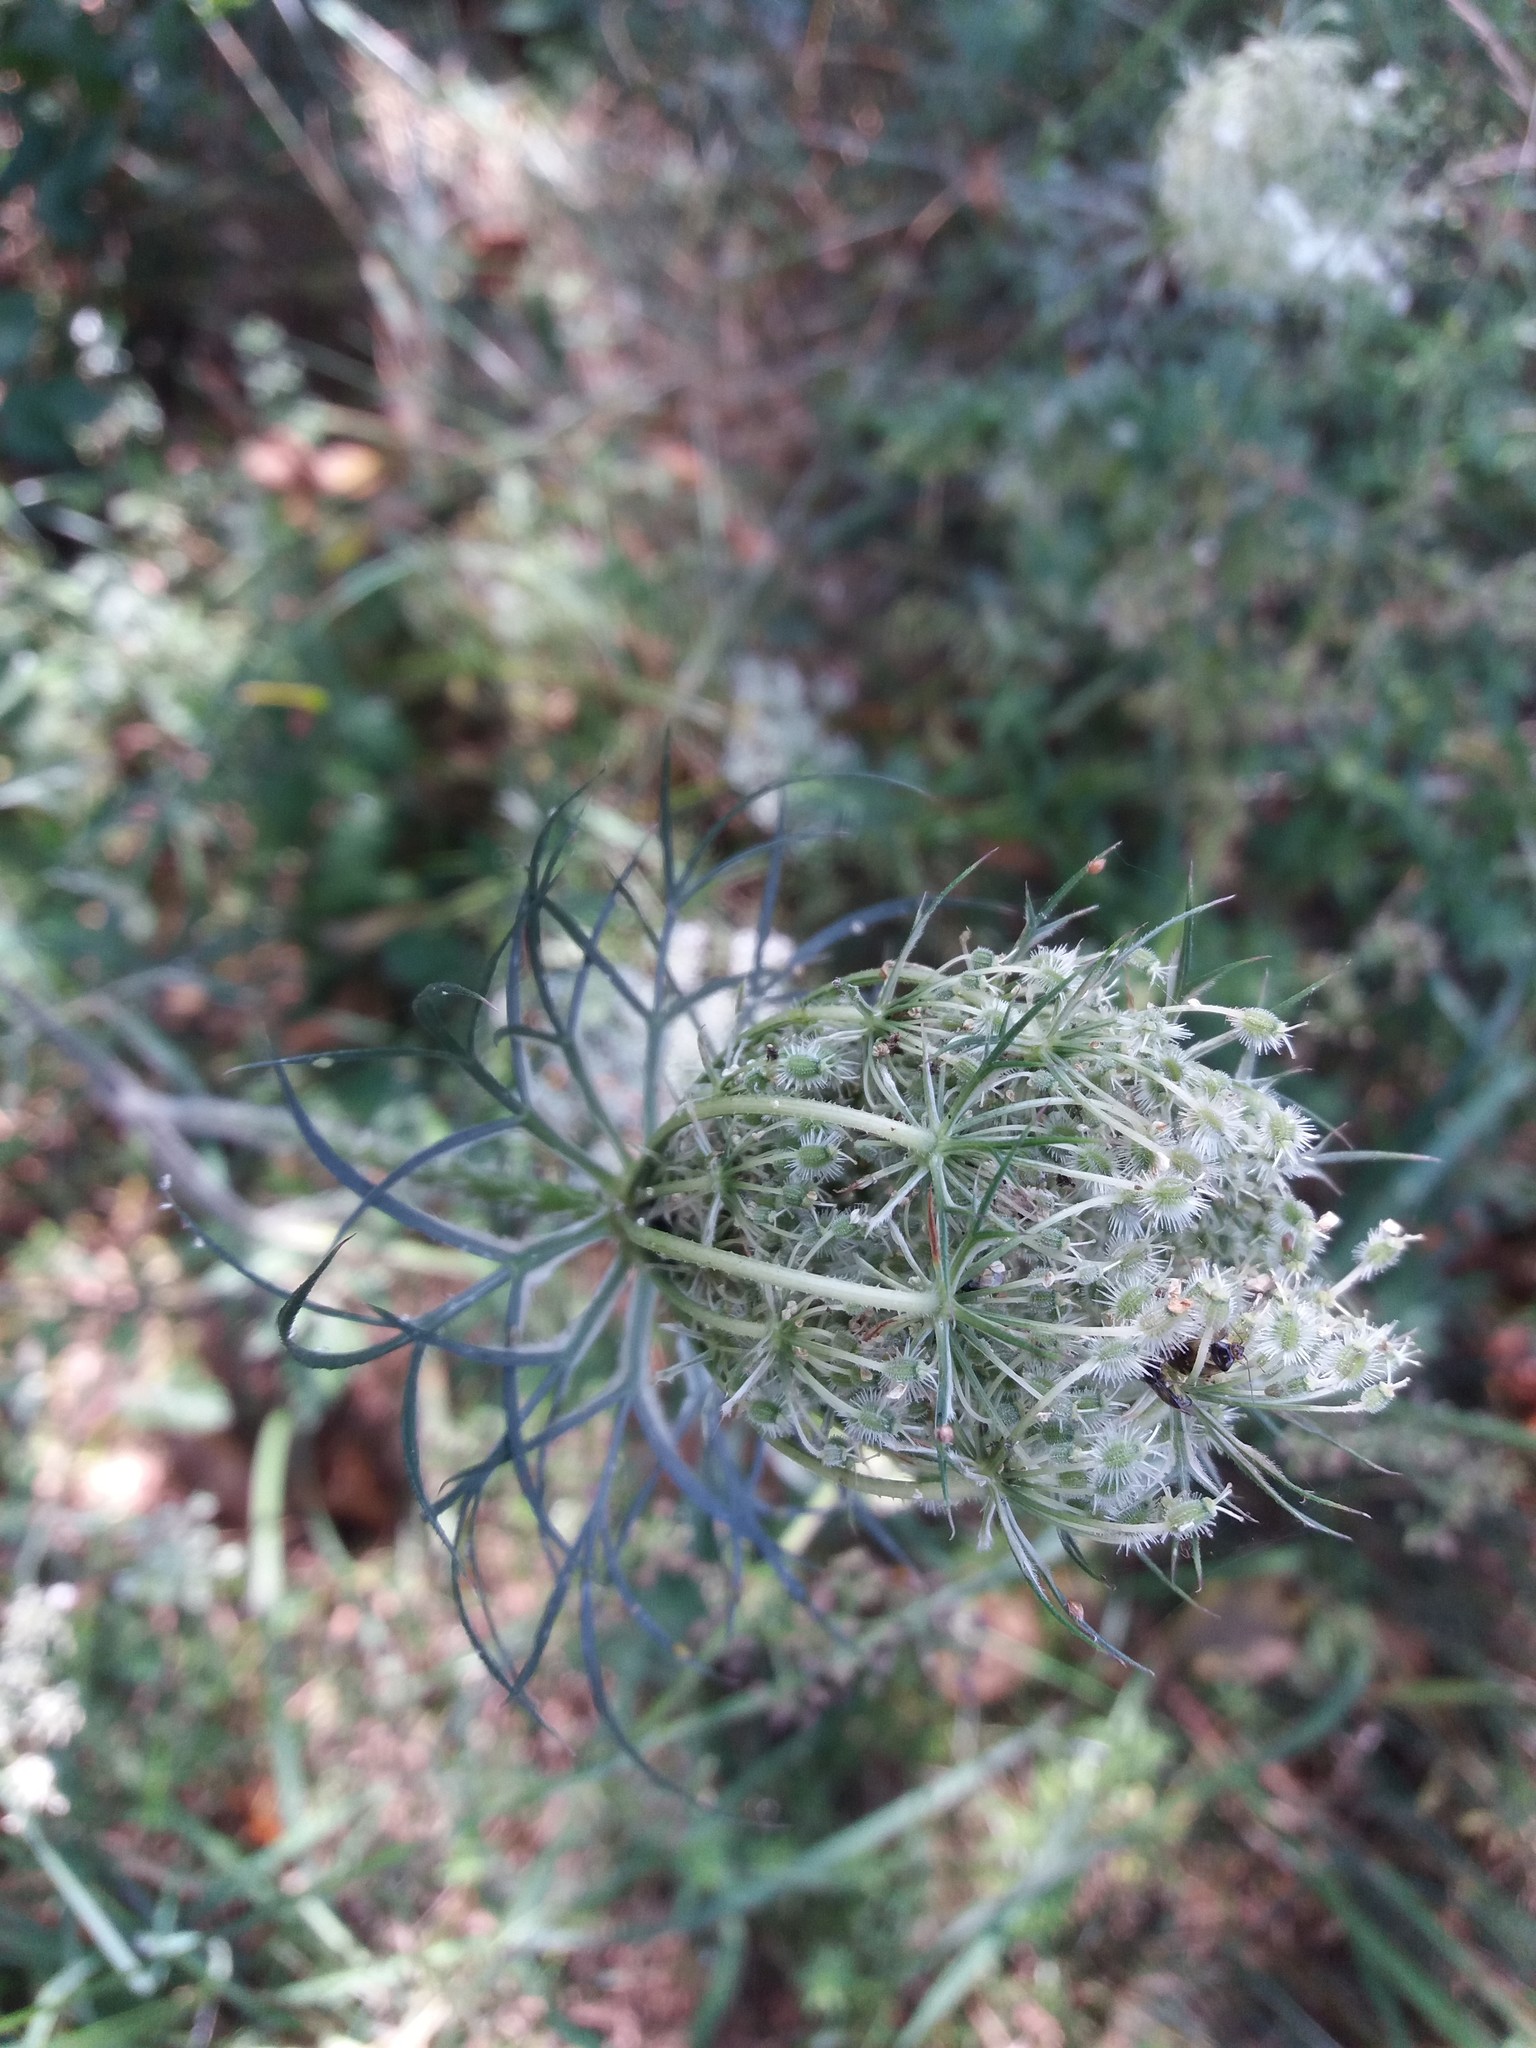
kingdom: Plantae
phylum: Tracheophyta
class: Magnoliopsida
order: Apiales
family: Apiaceae
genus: Daucus
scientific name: Daucus carota
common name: Wild carrot
